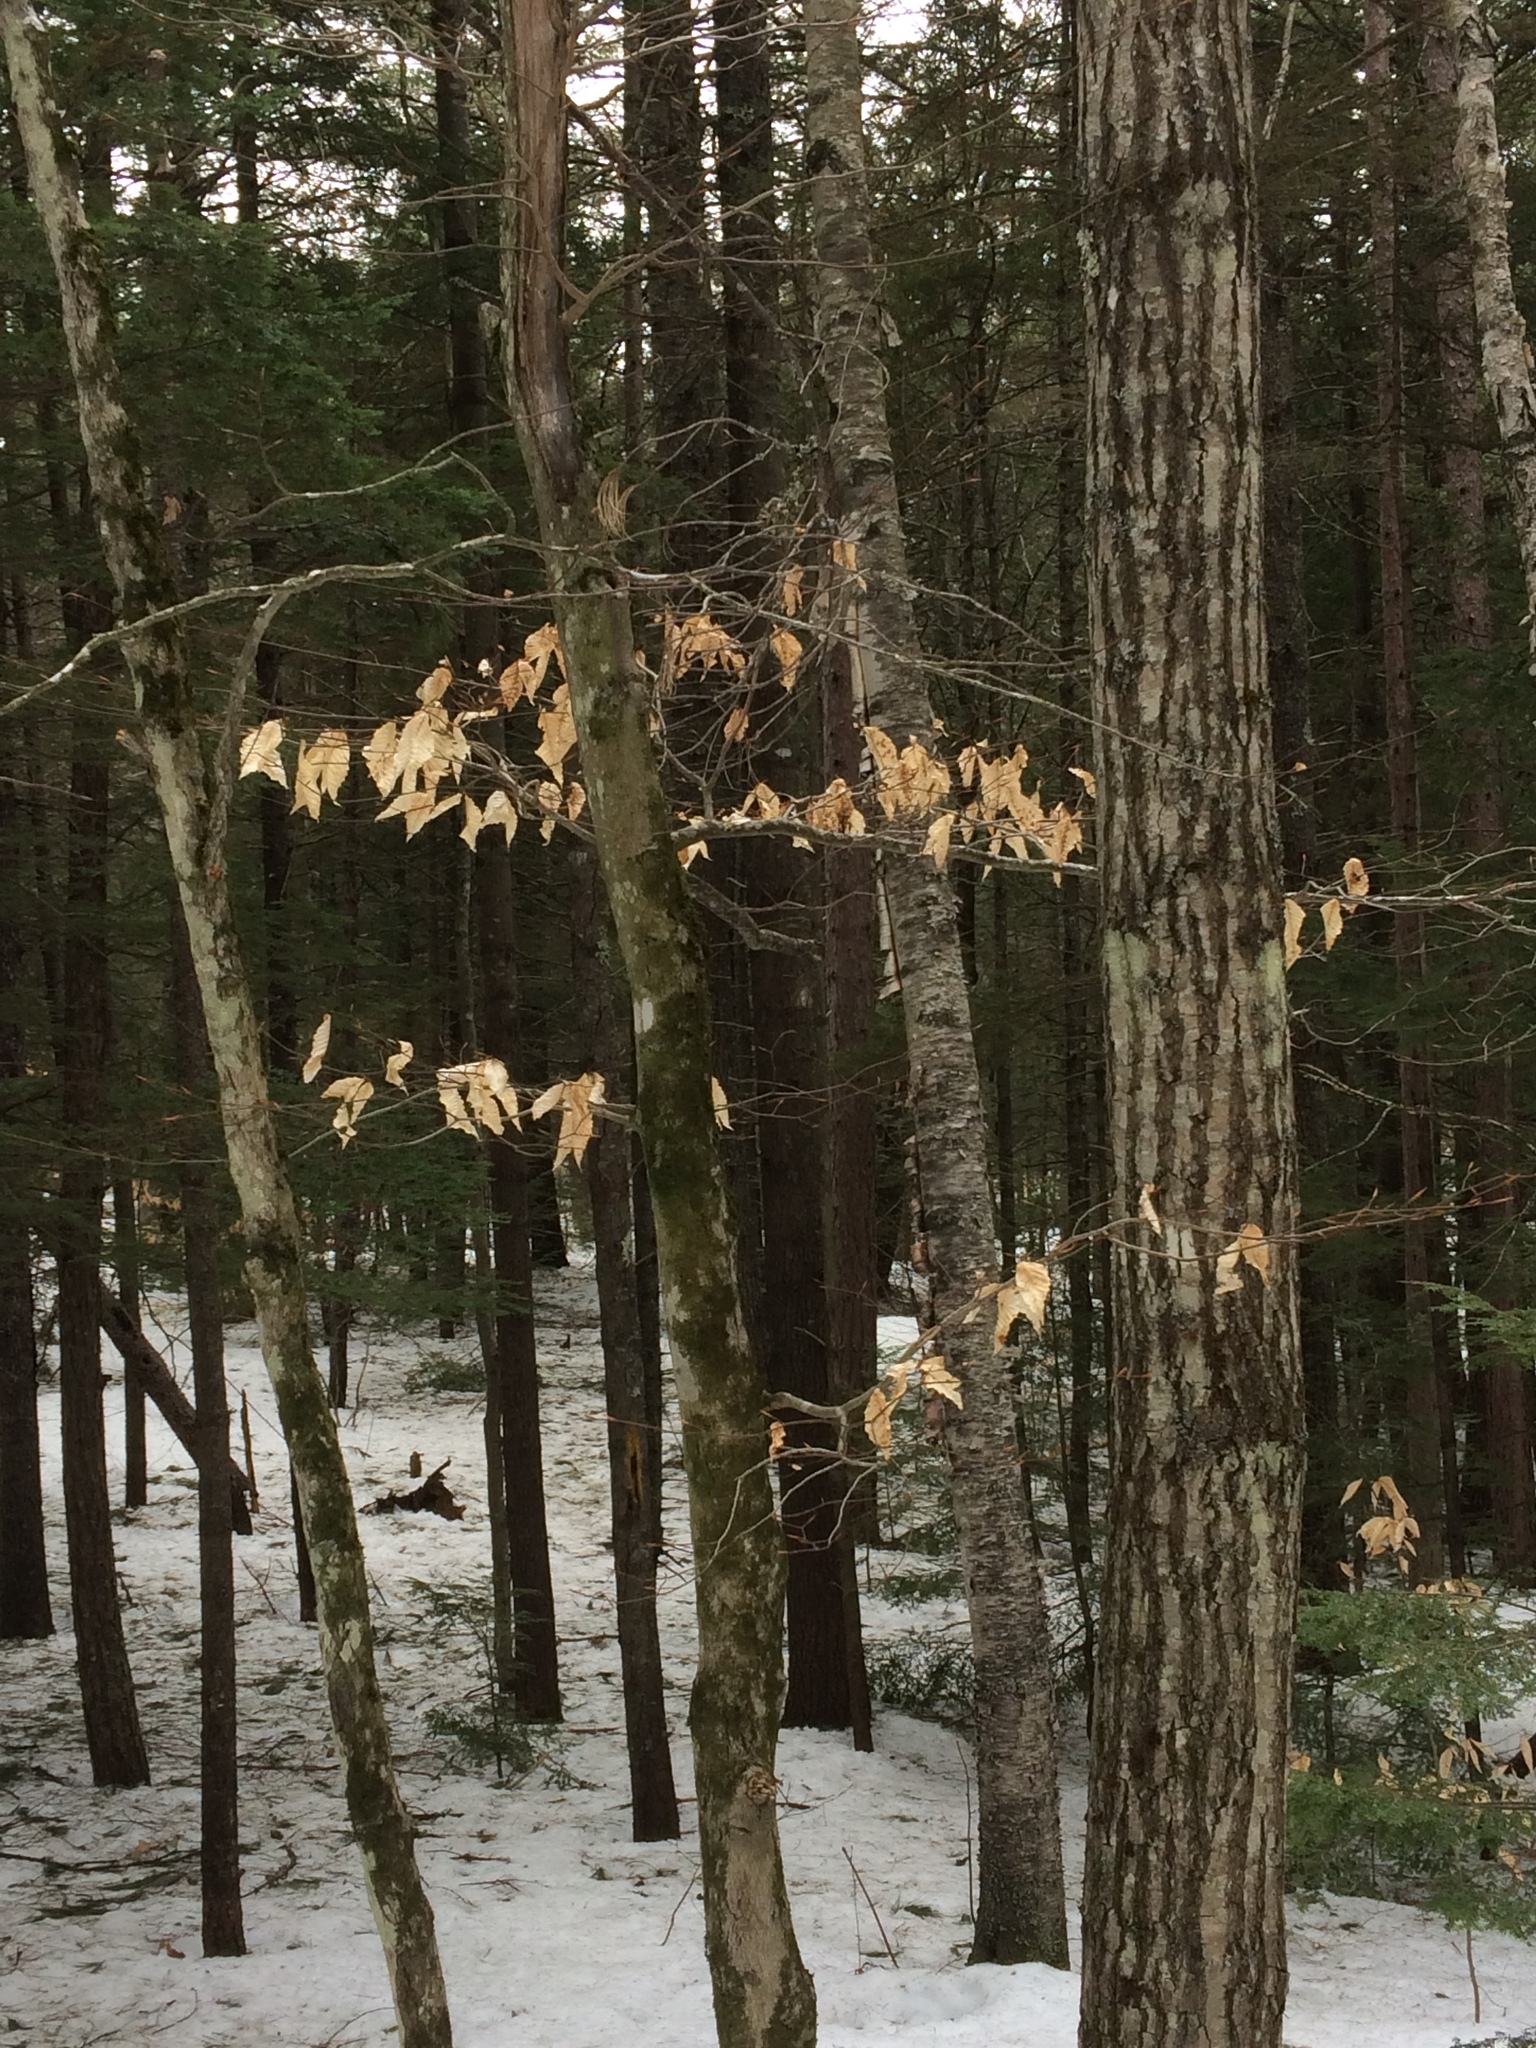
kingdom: Plantae
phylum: Tracheophyta
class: Magnoliopsida
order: Fagales
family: Fagaceae
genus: Fagus
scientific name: Fagus grandifolia
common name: American beech
